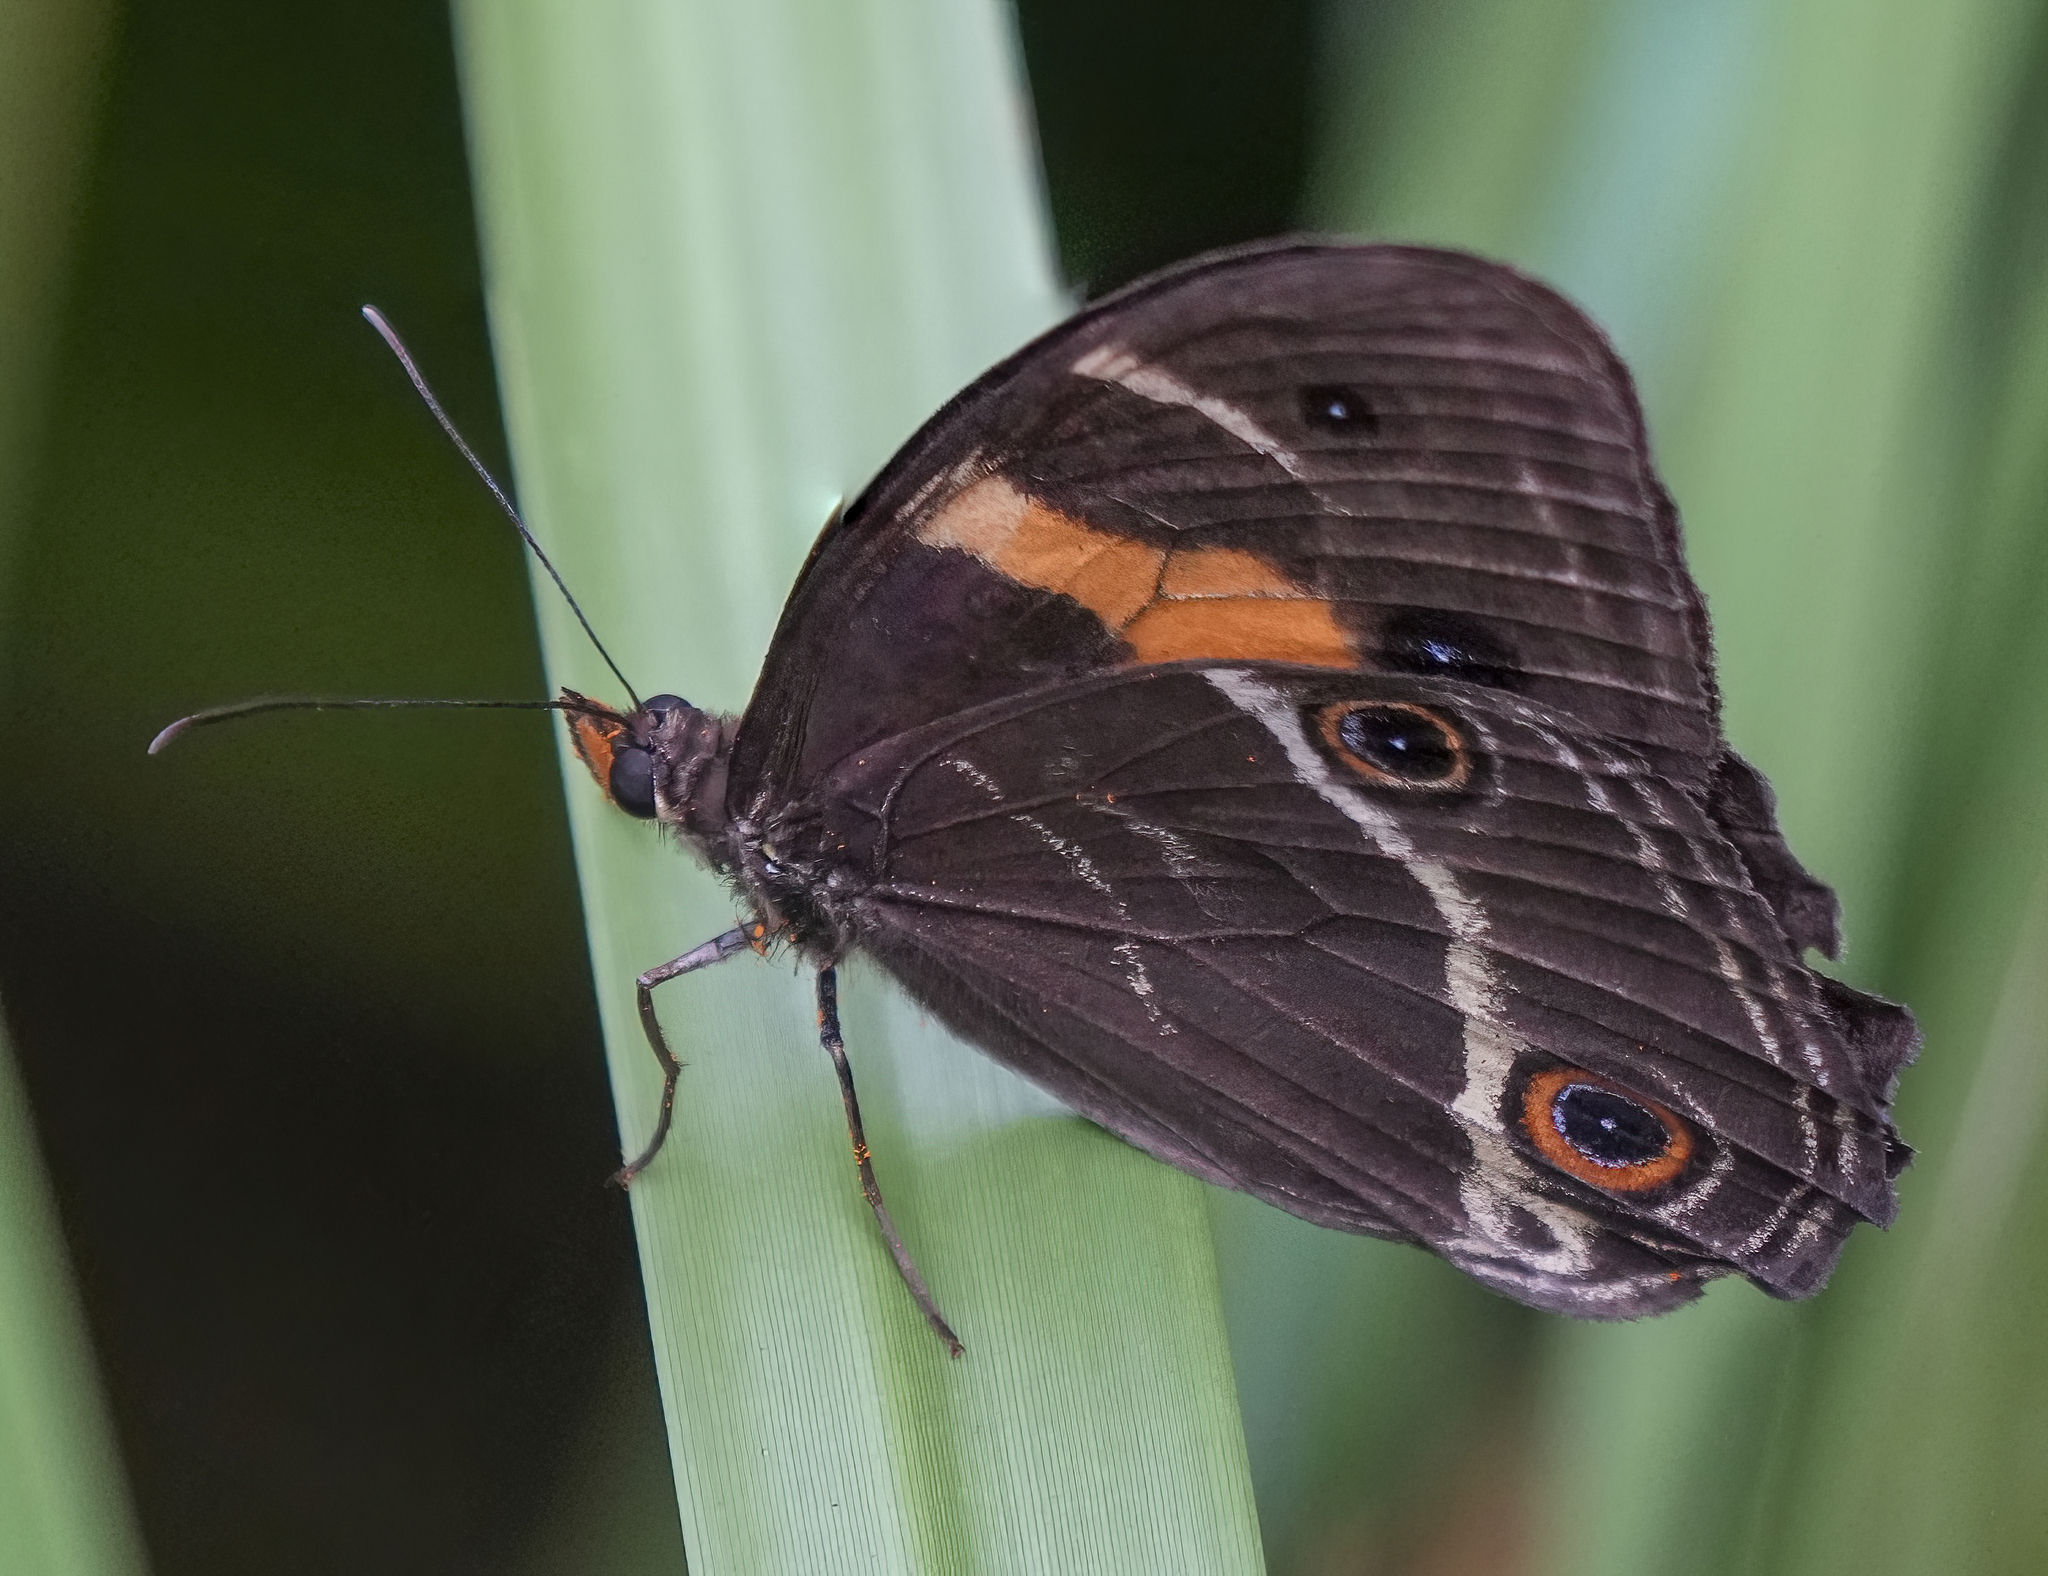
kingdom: Animalia
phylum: Arthropoda
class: Insecta
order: Lepidoptera
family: Nymphalidae
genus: Tisiphone
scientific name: Tisiphone abeona
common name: Swordgrass brown
